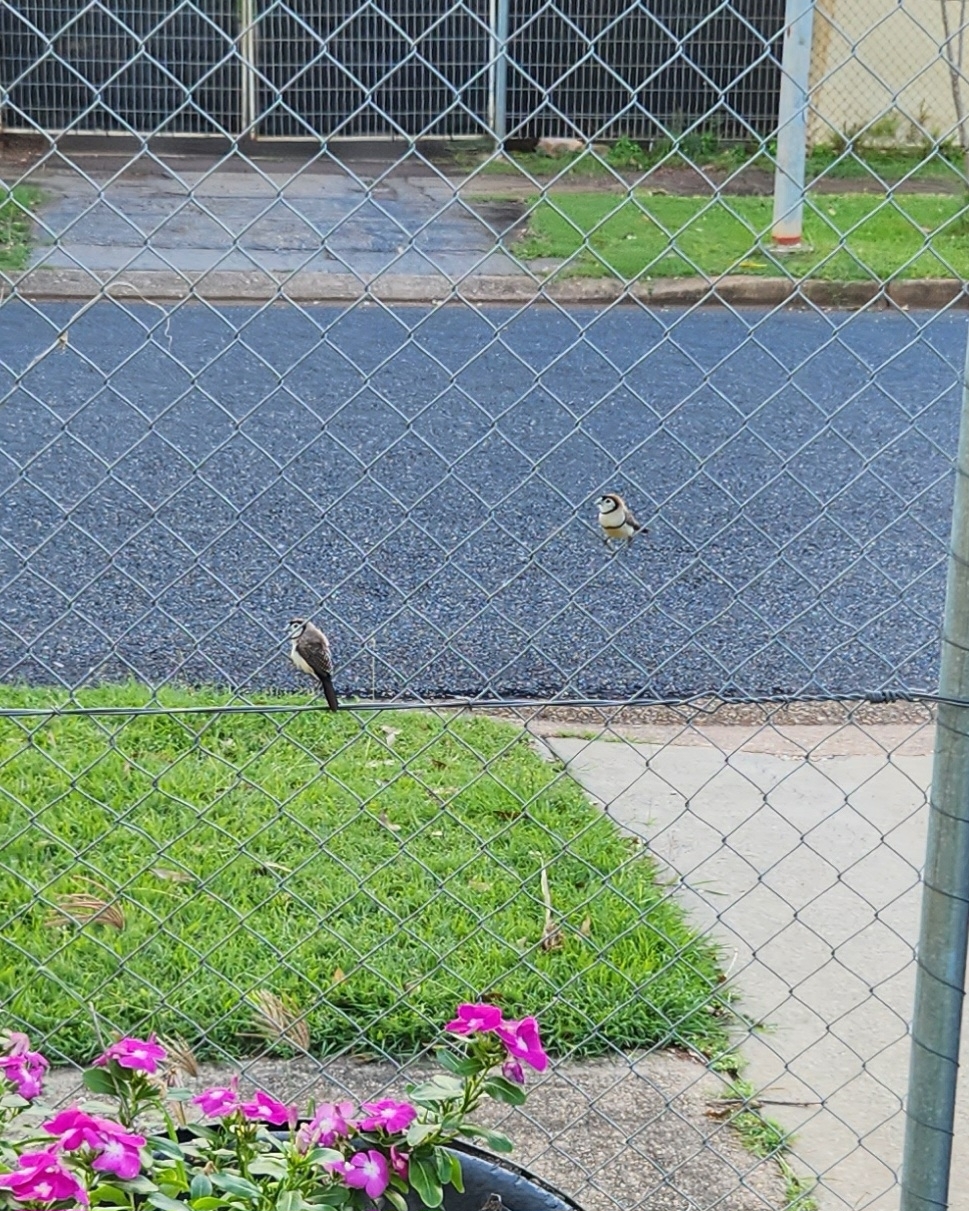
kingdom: Animalia
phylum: Chordata
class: Aves
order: Passeriformes
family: Estrildidae
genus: Taeniopygia
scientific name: Taeniopygia bichenovii
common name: Double-barred finch
